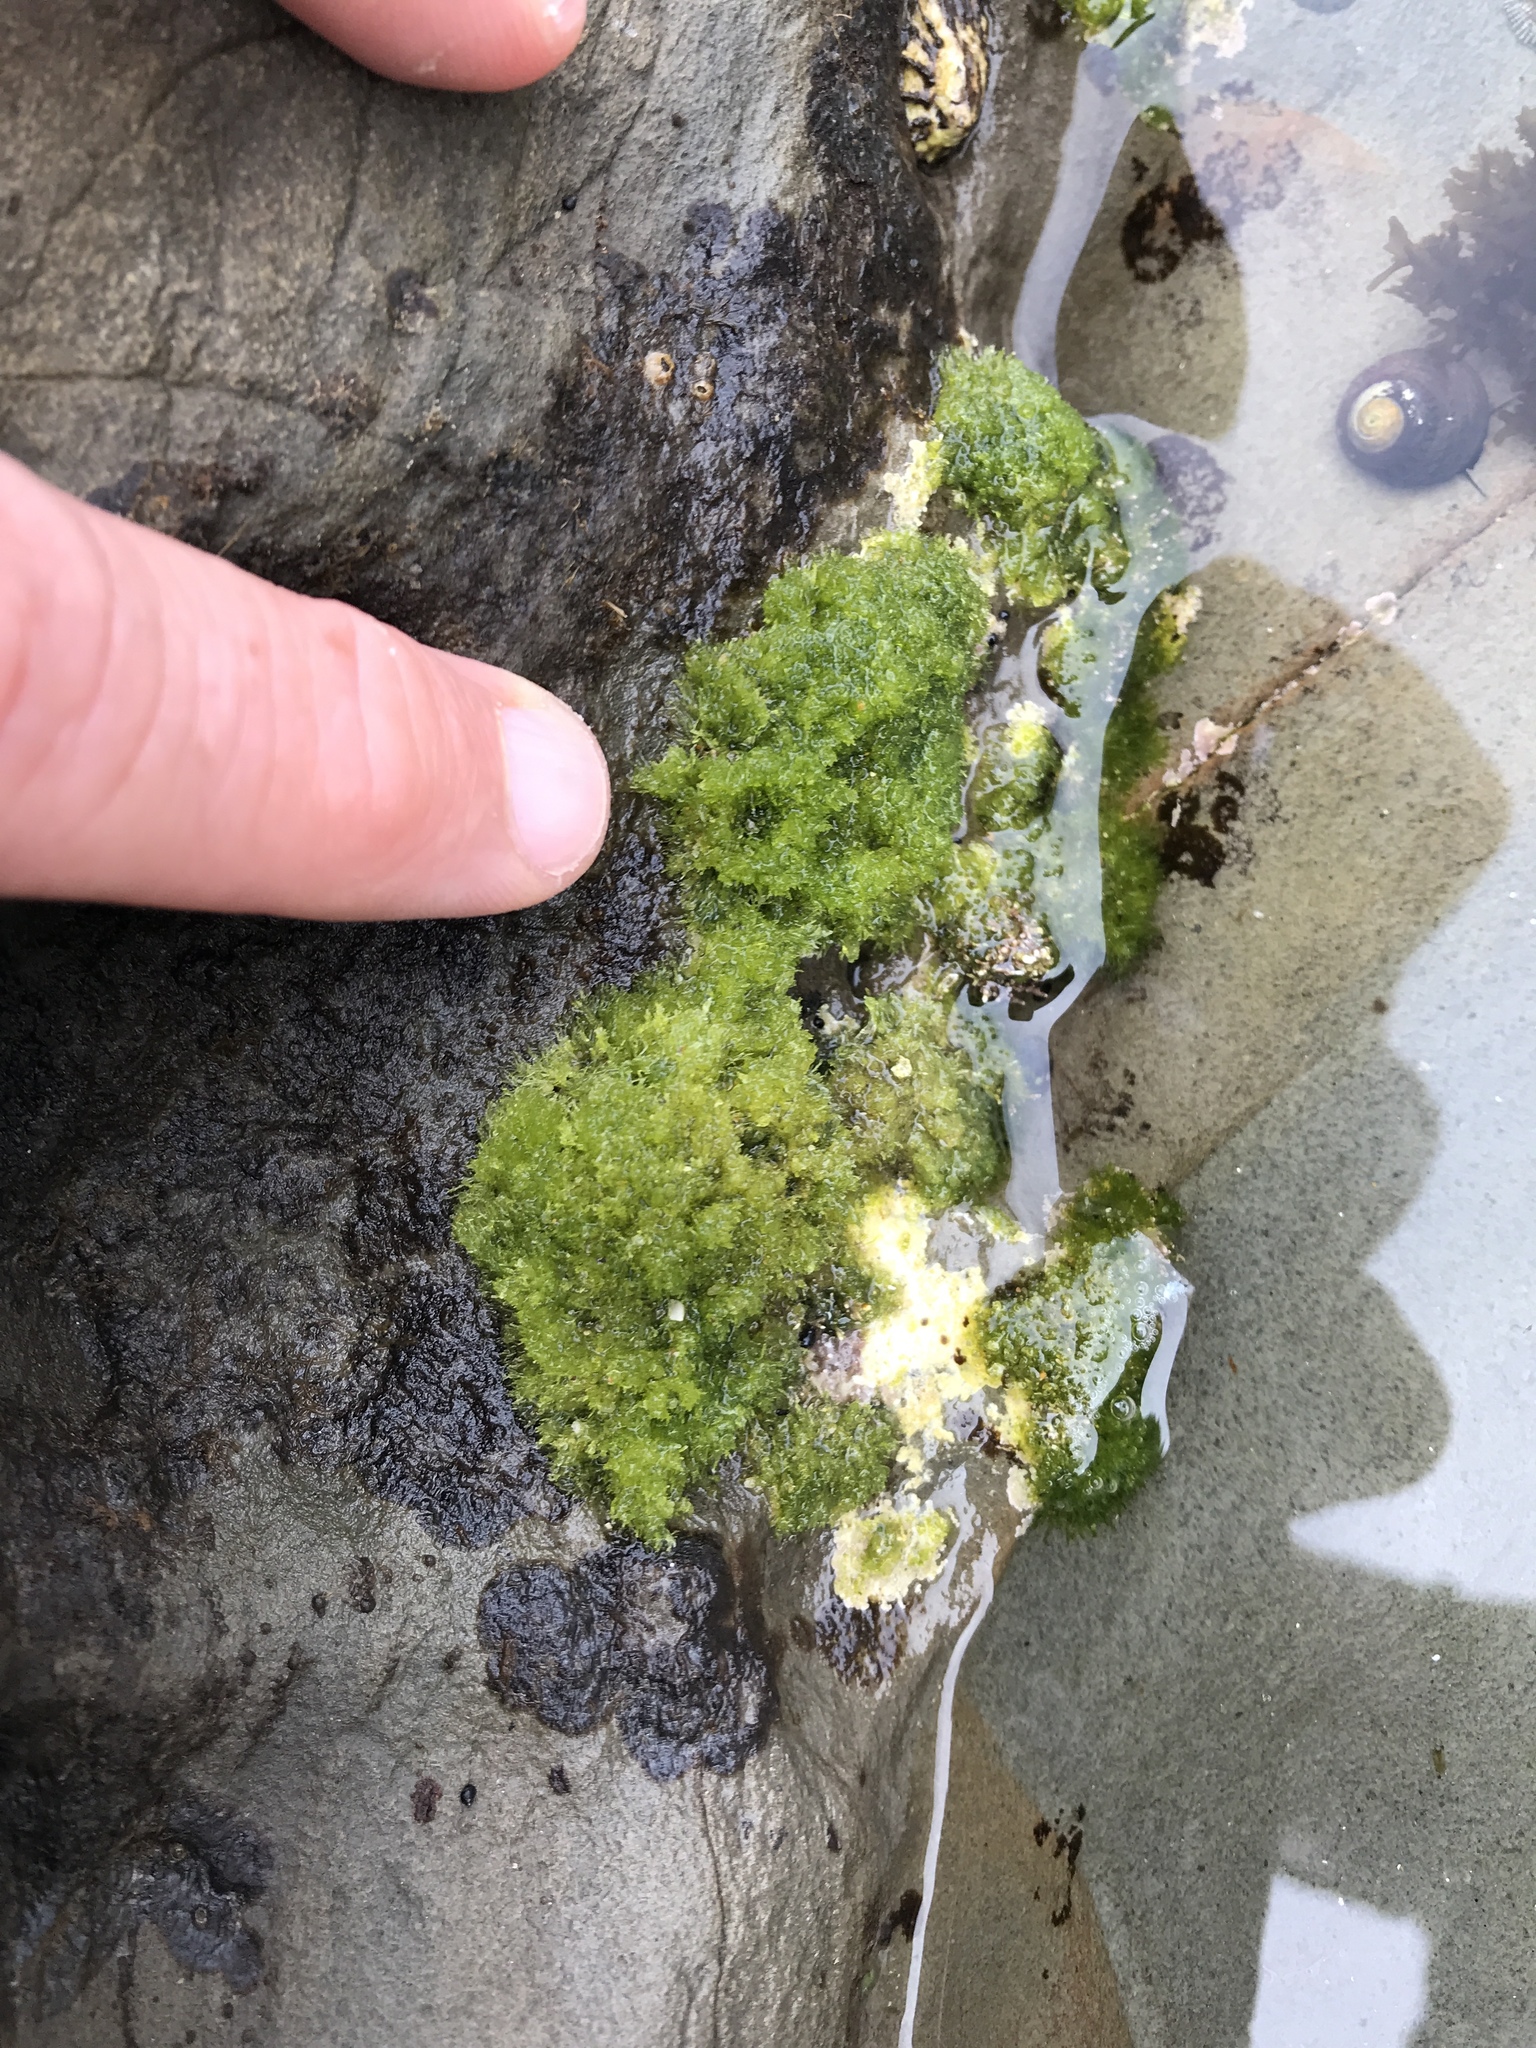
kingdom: Plantae
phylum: Chlorophyta
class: Ulvophyceae
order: Cladophorales
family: Cladophoraceae
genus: Cladophora
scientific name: Cladophora columbiana
